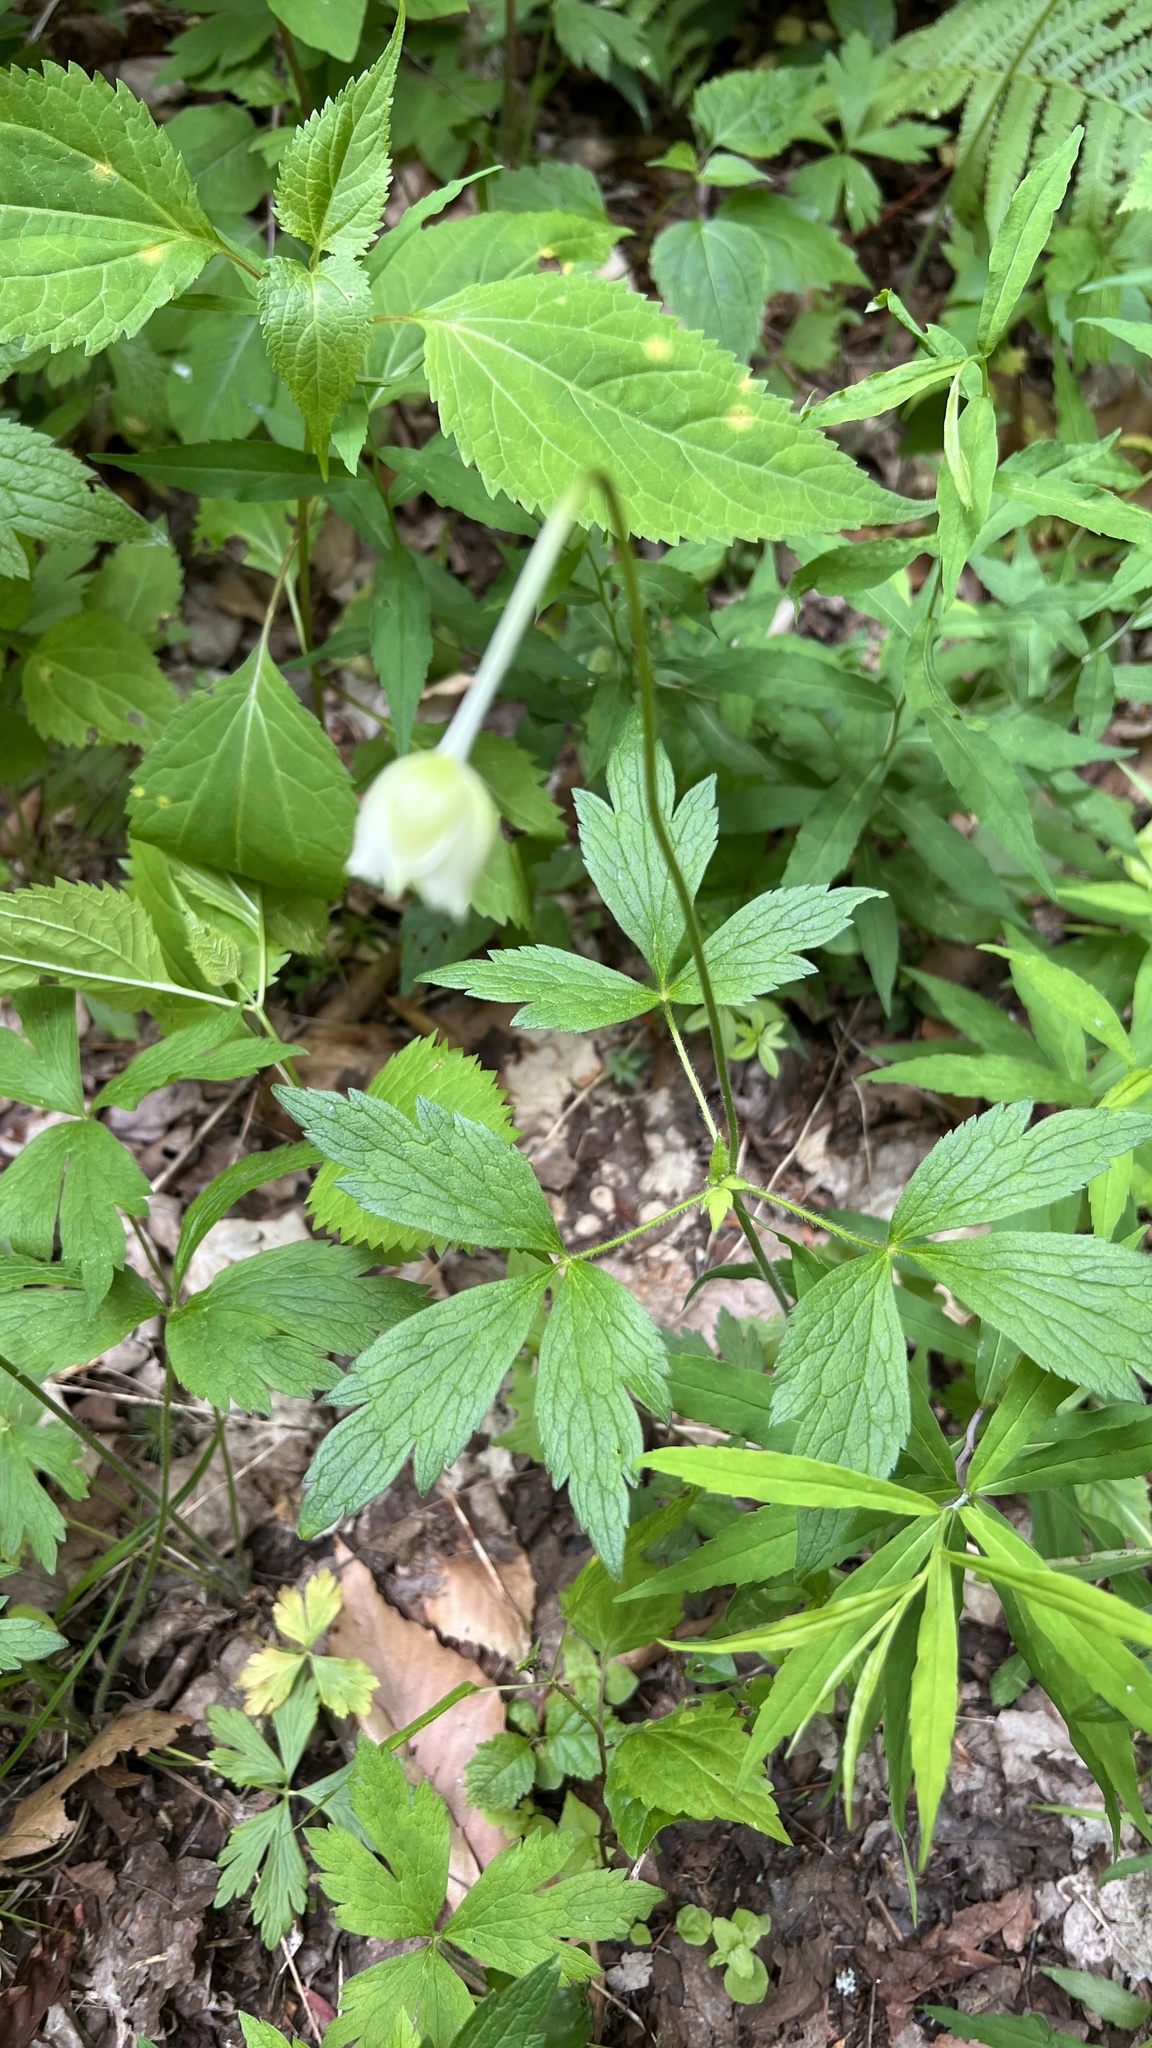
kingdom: Plantae
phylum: Tracheophyta
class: Magnoliopsida
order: Ranunculales
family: Ranunculaceae
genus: Anemone
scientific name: Anemone virginiana
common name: Tall anemone
